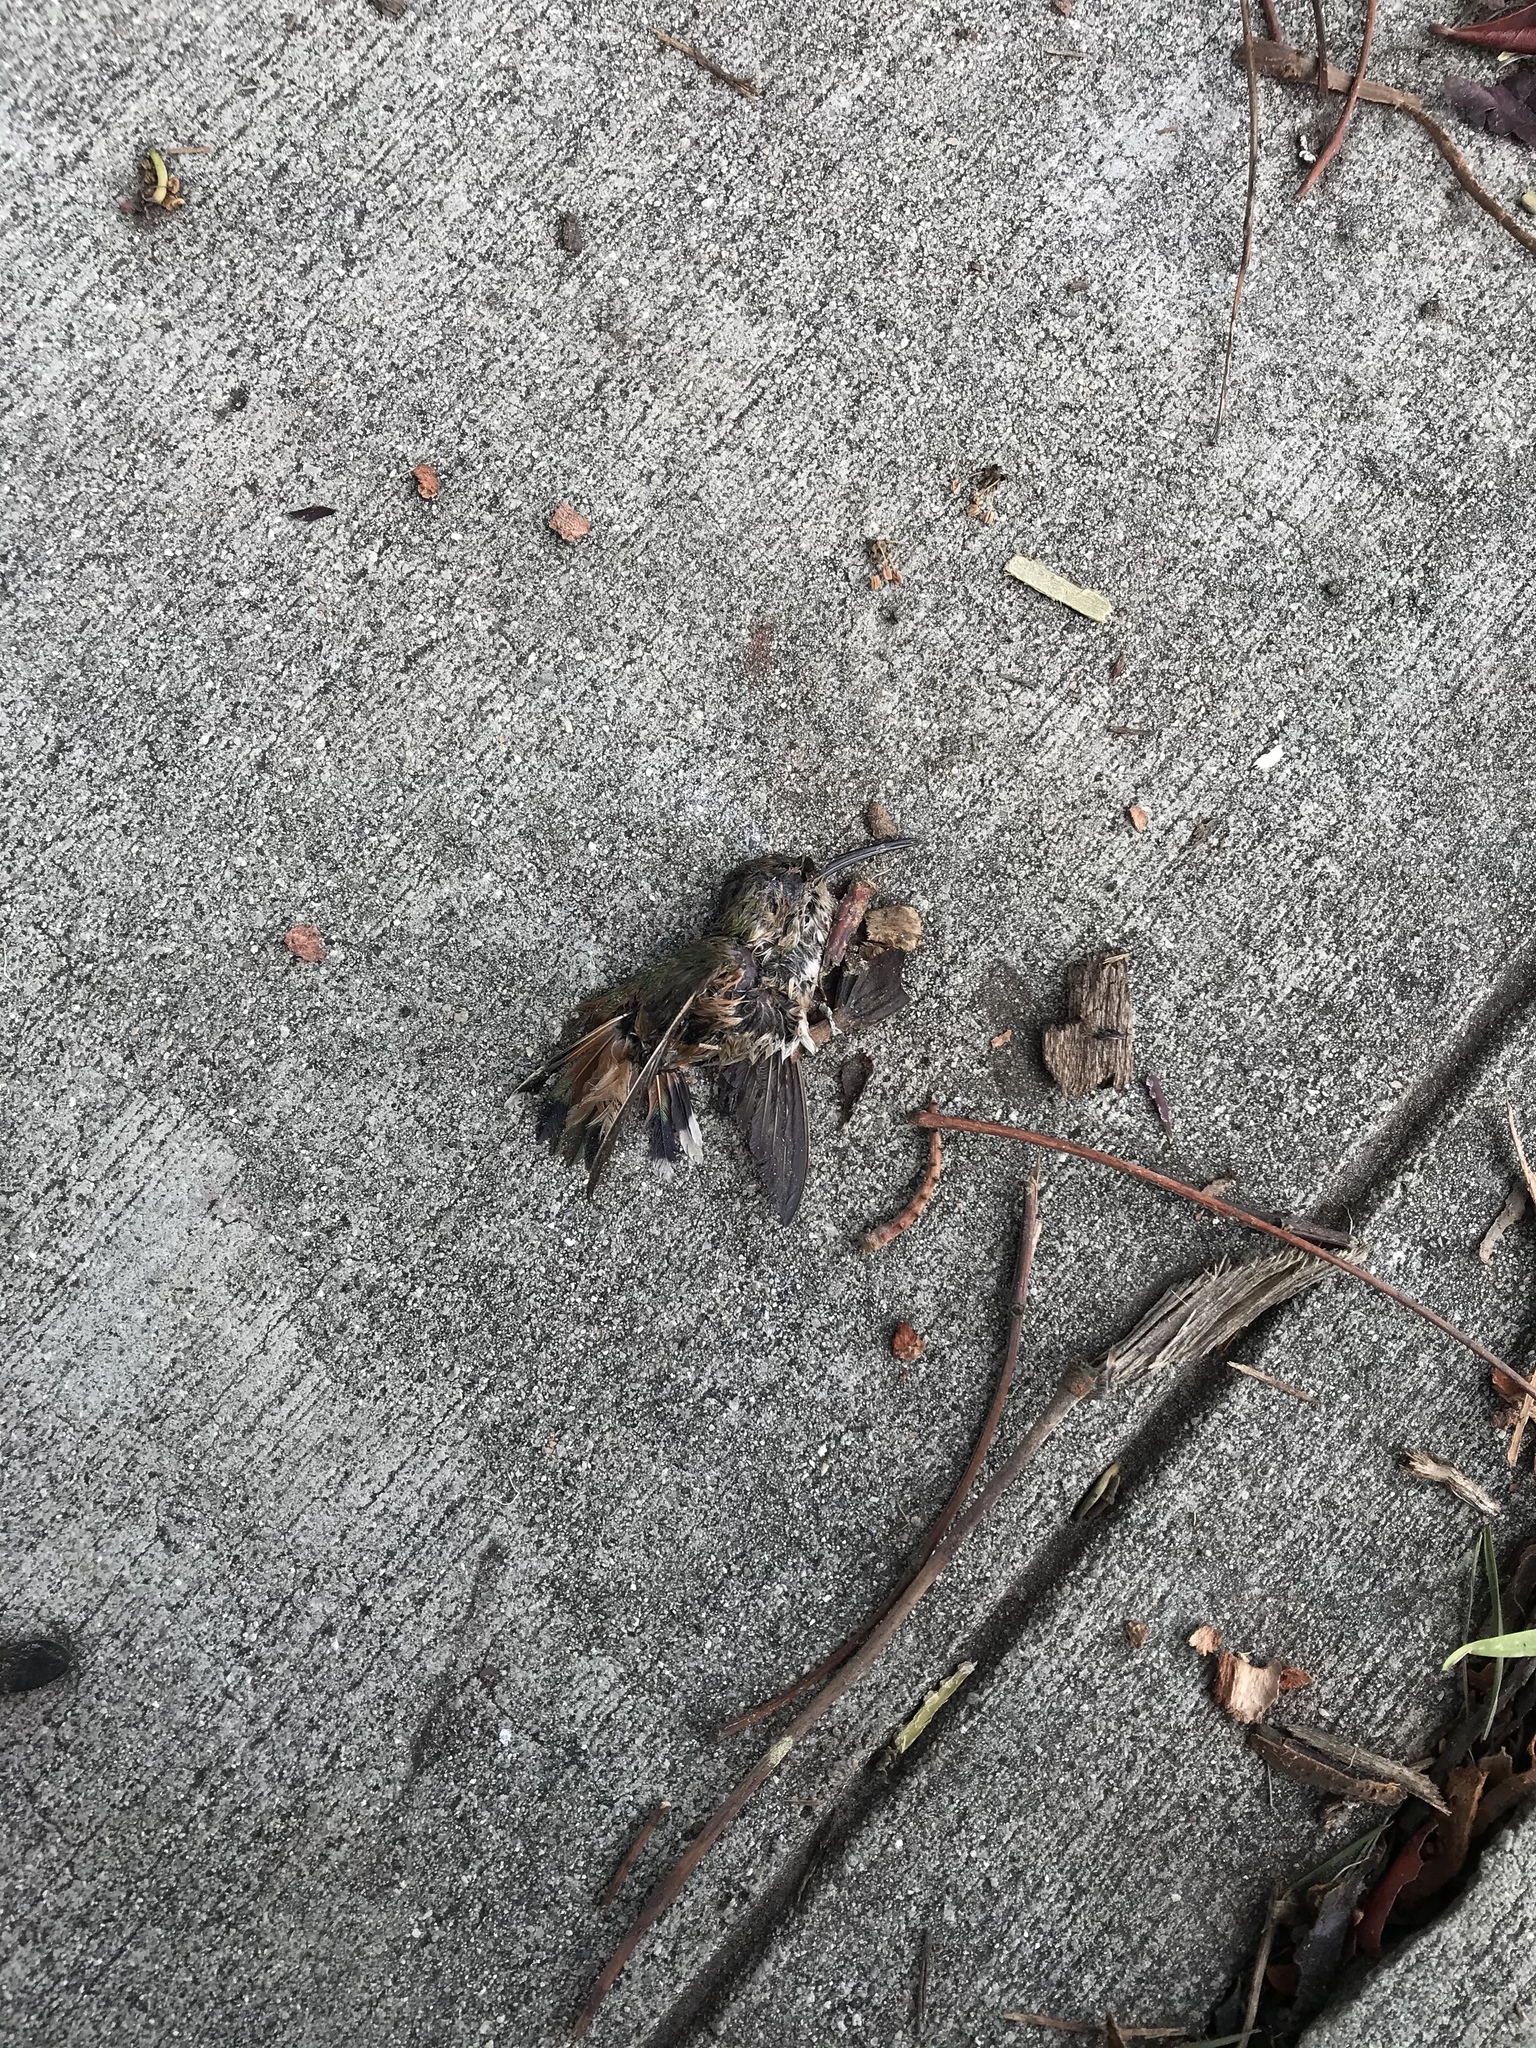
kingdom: Animalia
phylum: Chordata
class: Aves
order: Apodiformes
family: Trochilidae
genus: Selasphorus
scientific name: Selasphorus sasin
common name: Allen's hummingbird
